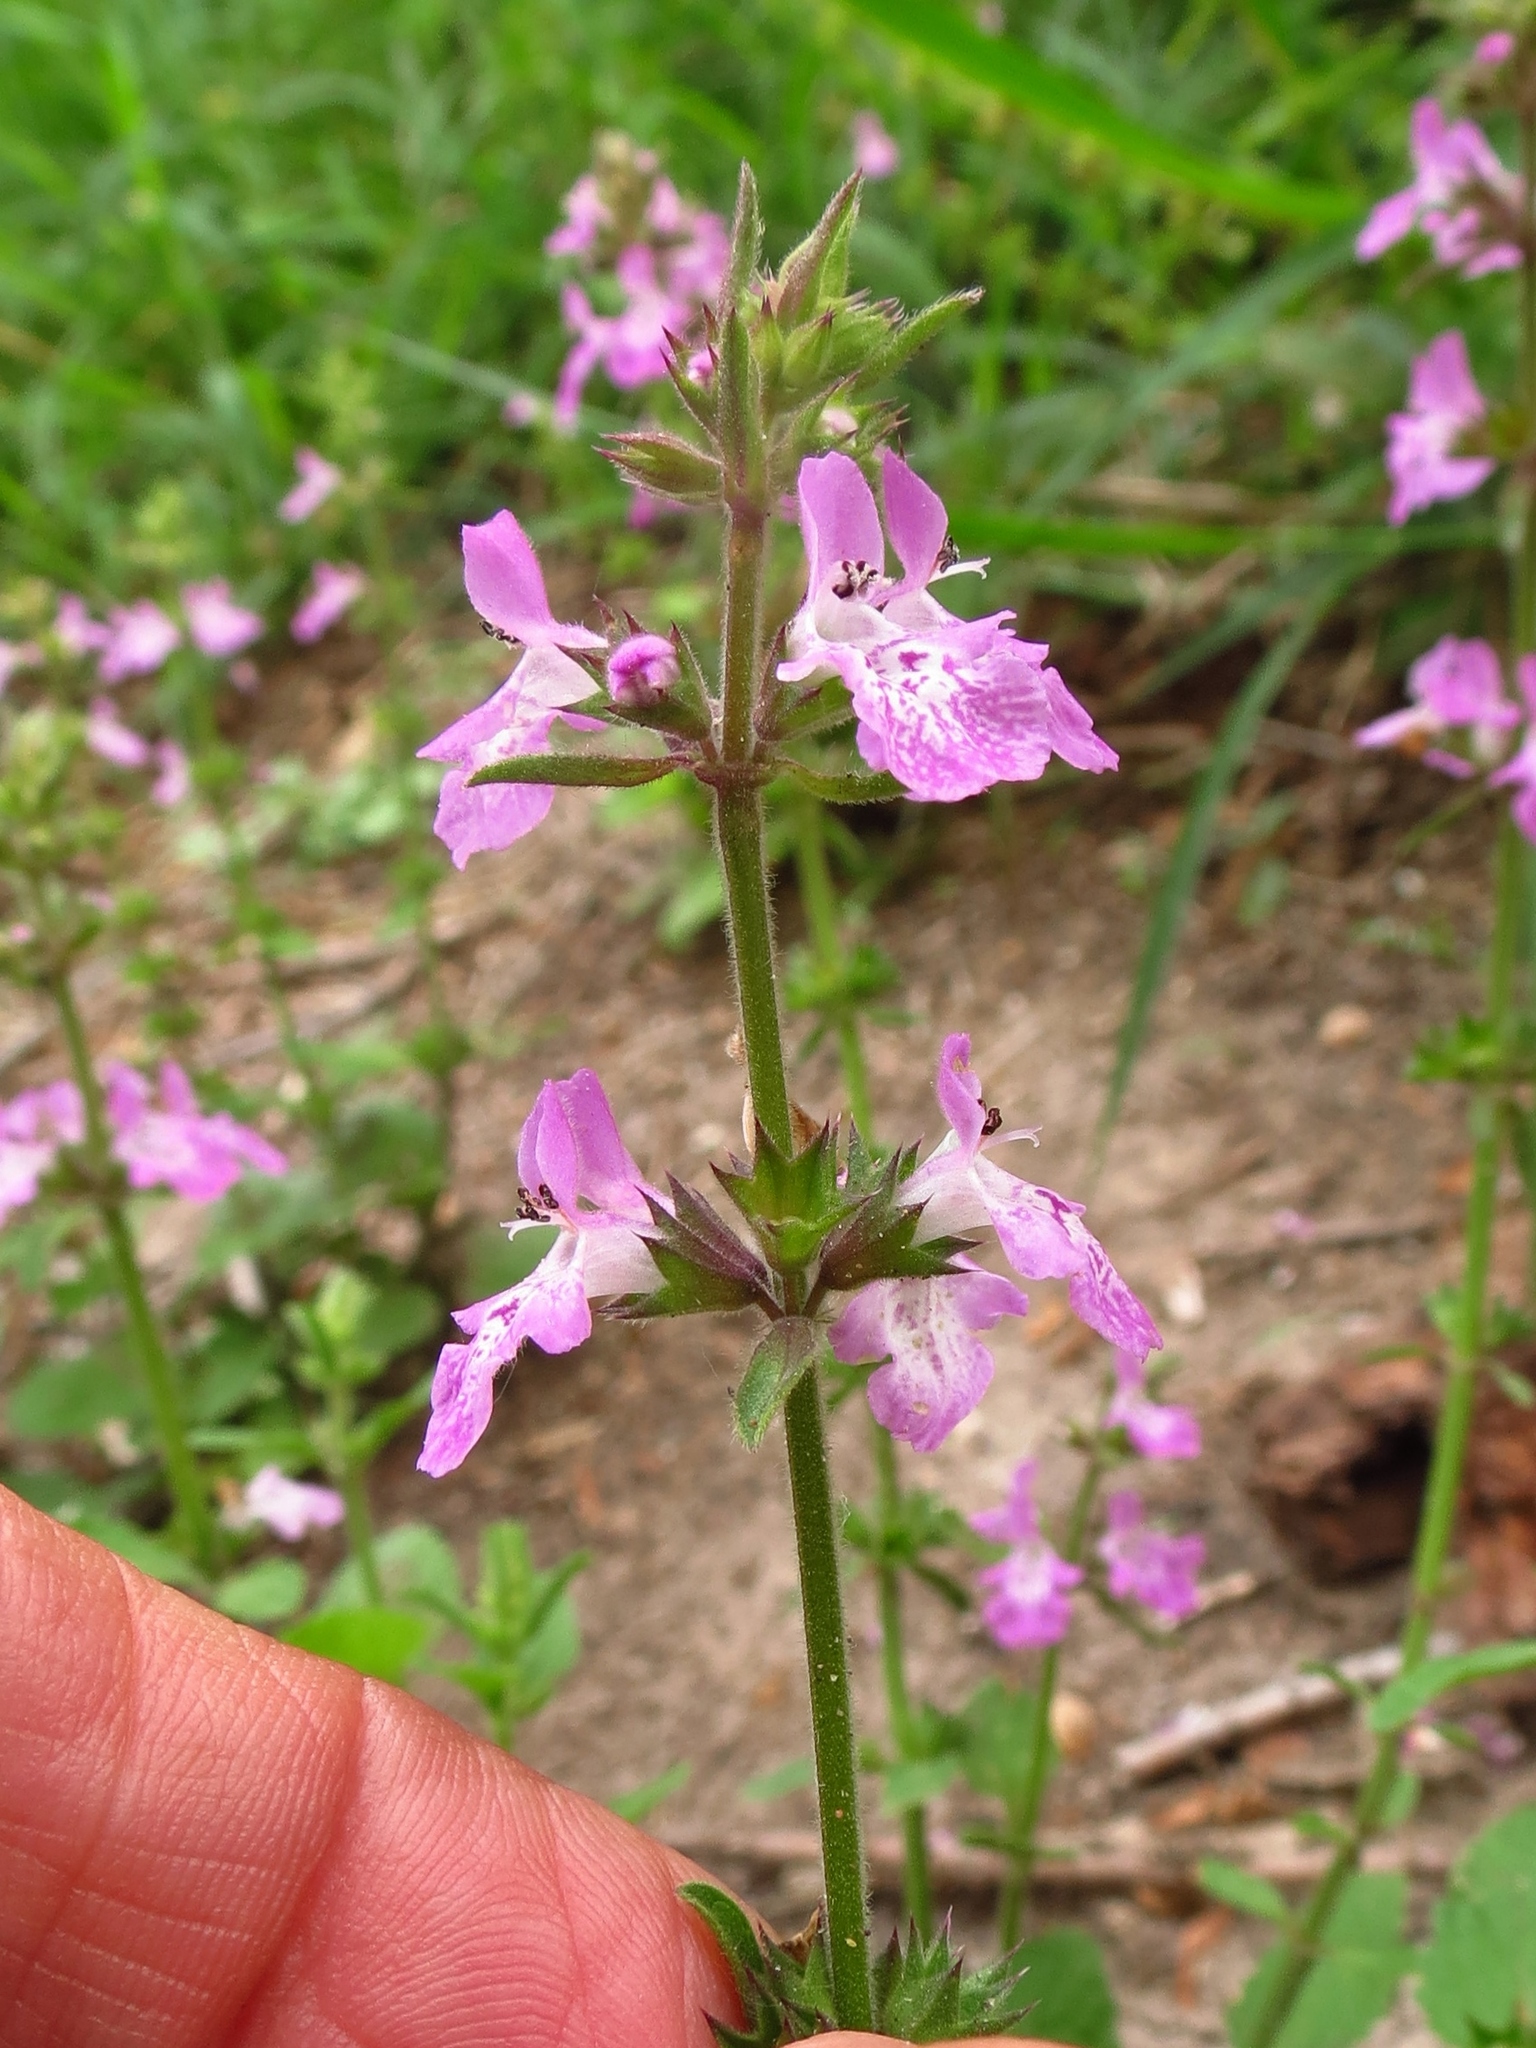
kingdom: Plantae
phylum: Tracheophyta
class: Magnoliopsida
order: Lamiales
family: Lamiaceae
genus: Stachys
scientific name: Stachys drummondii
